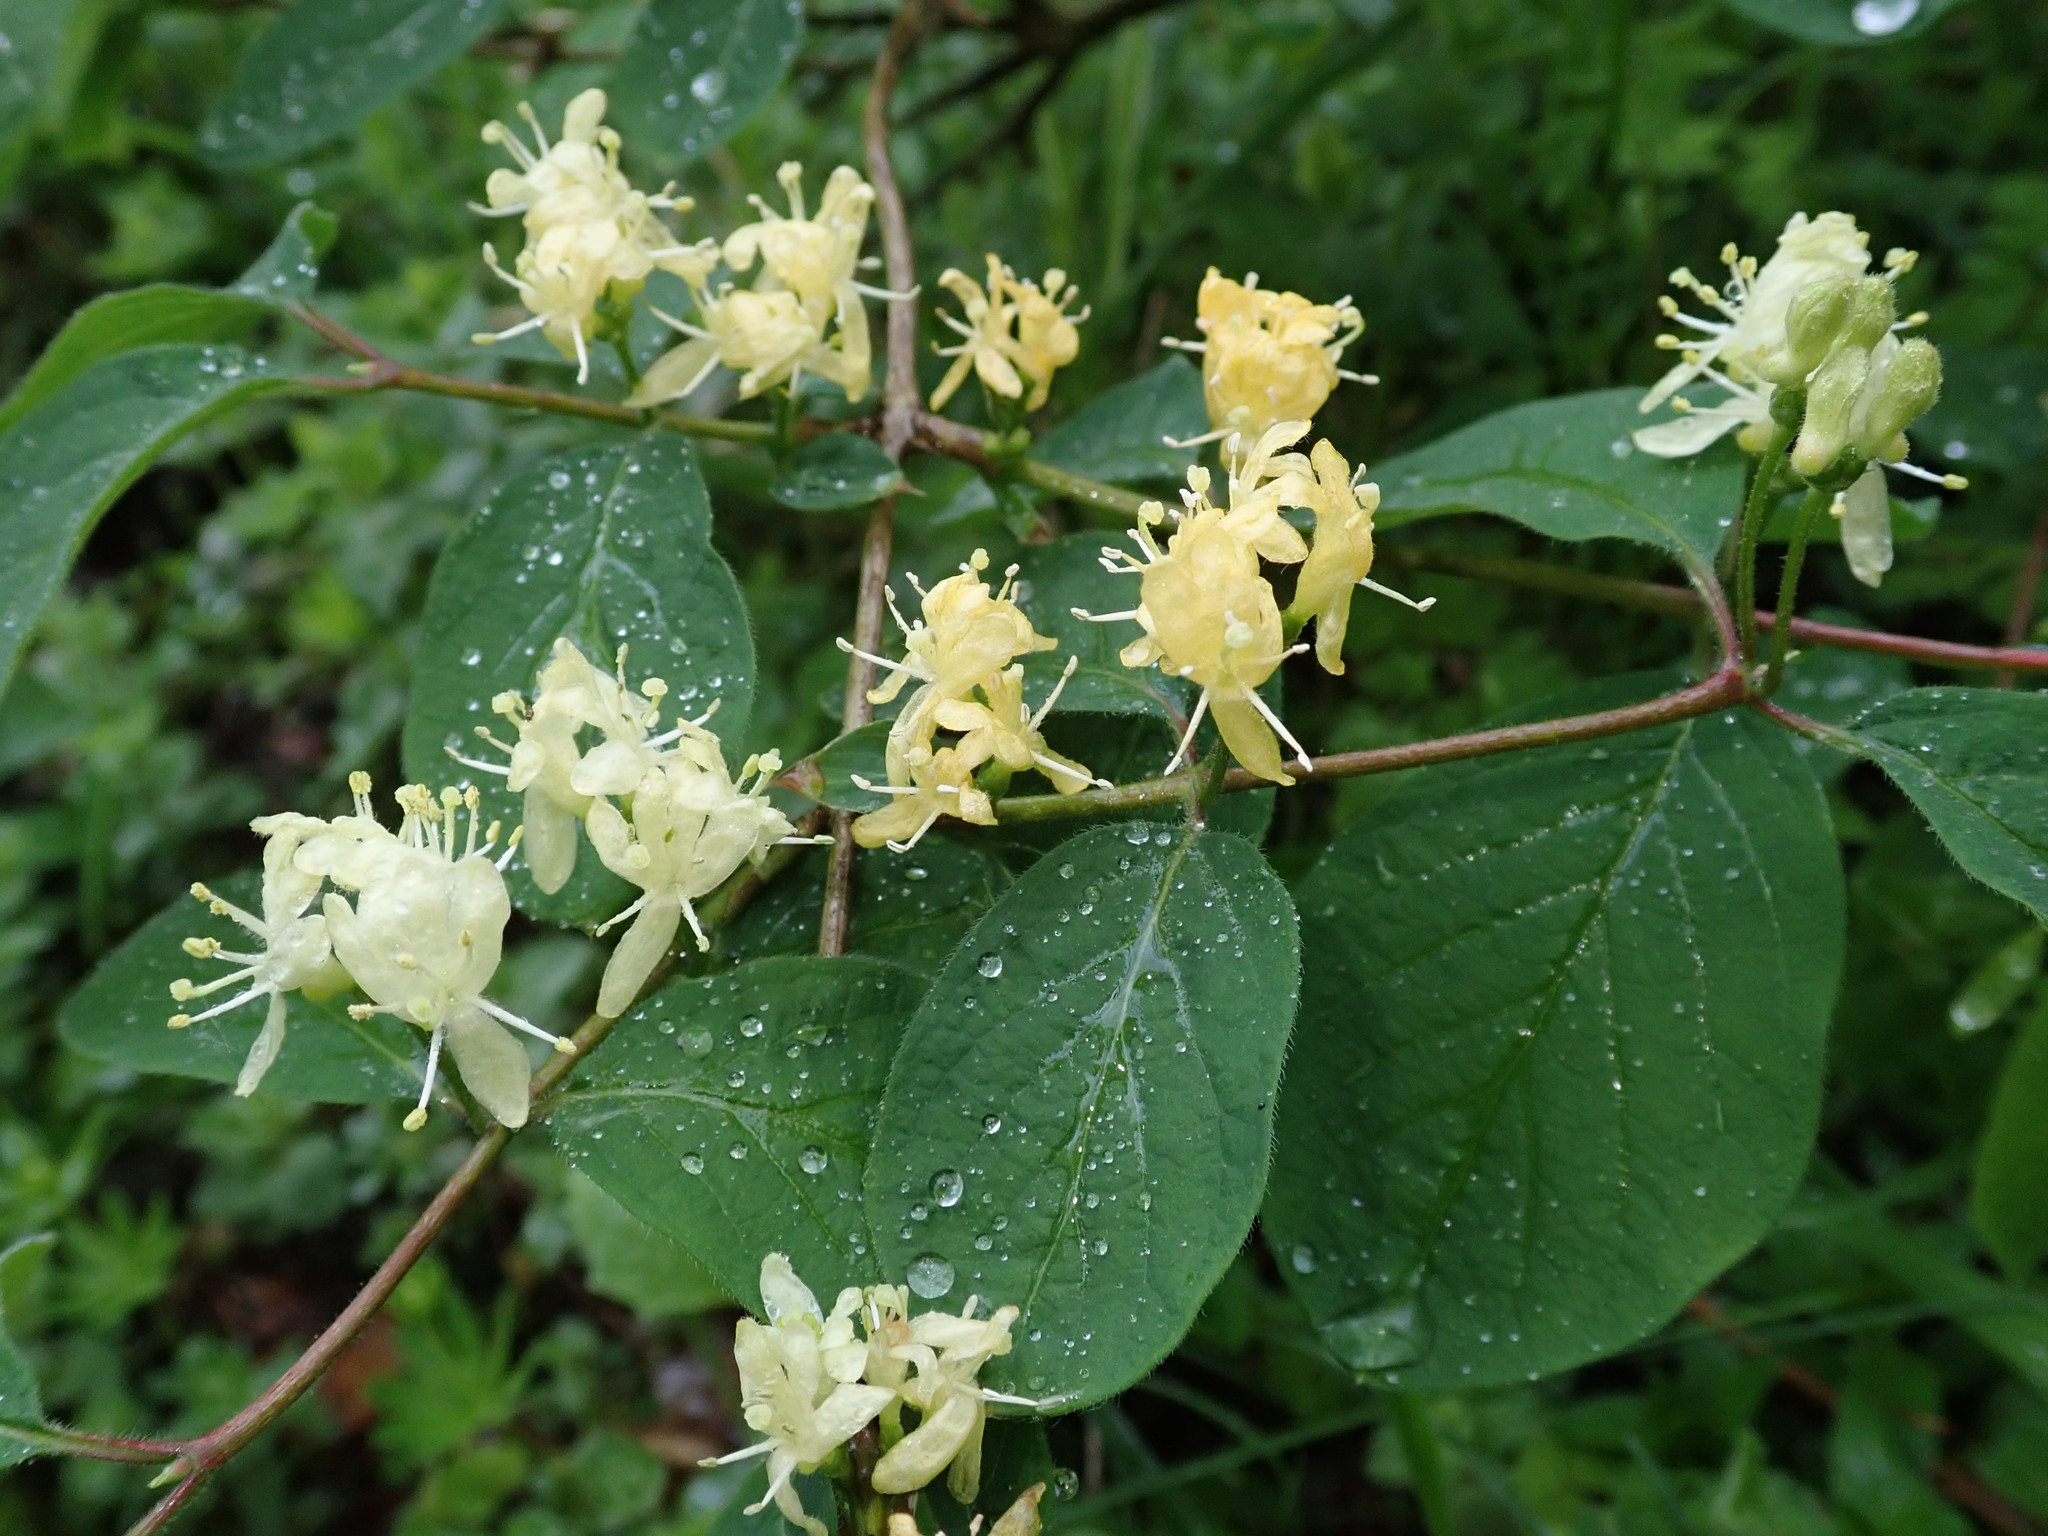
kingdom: Plantae
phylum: Tracheophyta
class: Magnoliopsida
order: Dipsacales
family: Caprifoliaceae
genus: Lonicera
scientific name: Lonicera xylosteum
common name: Fly honeysuckle
